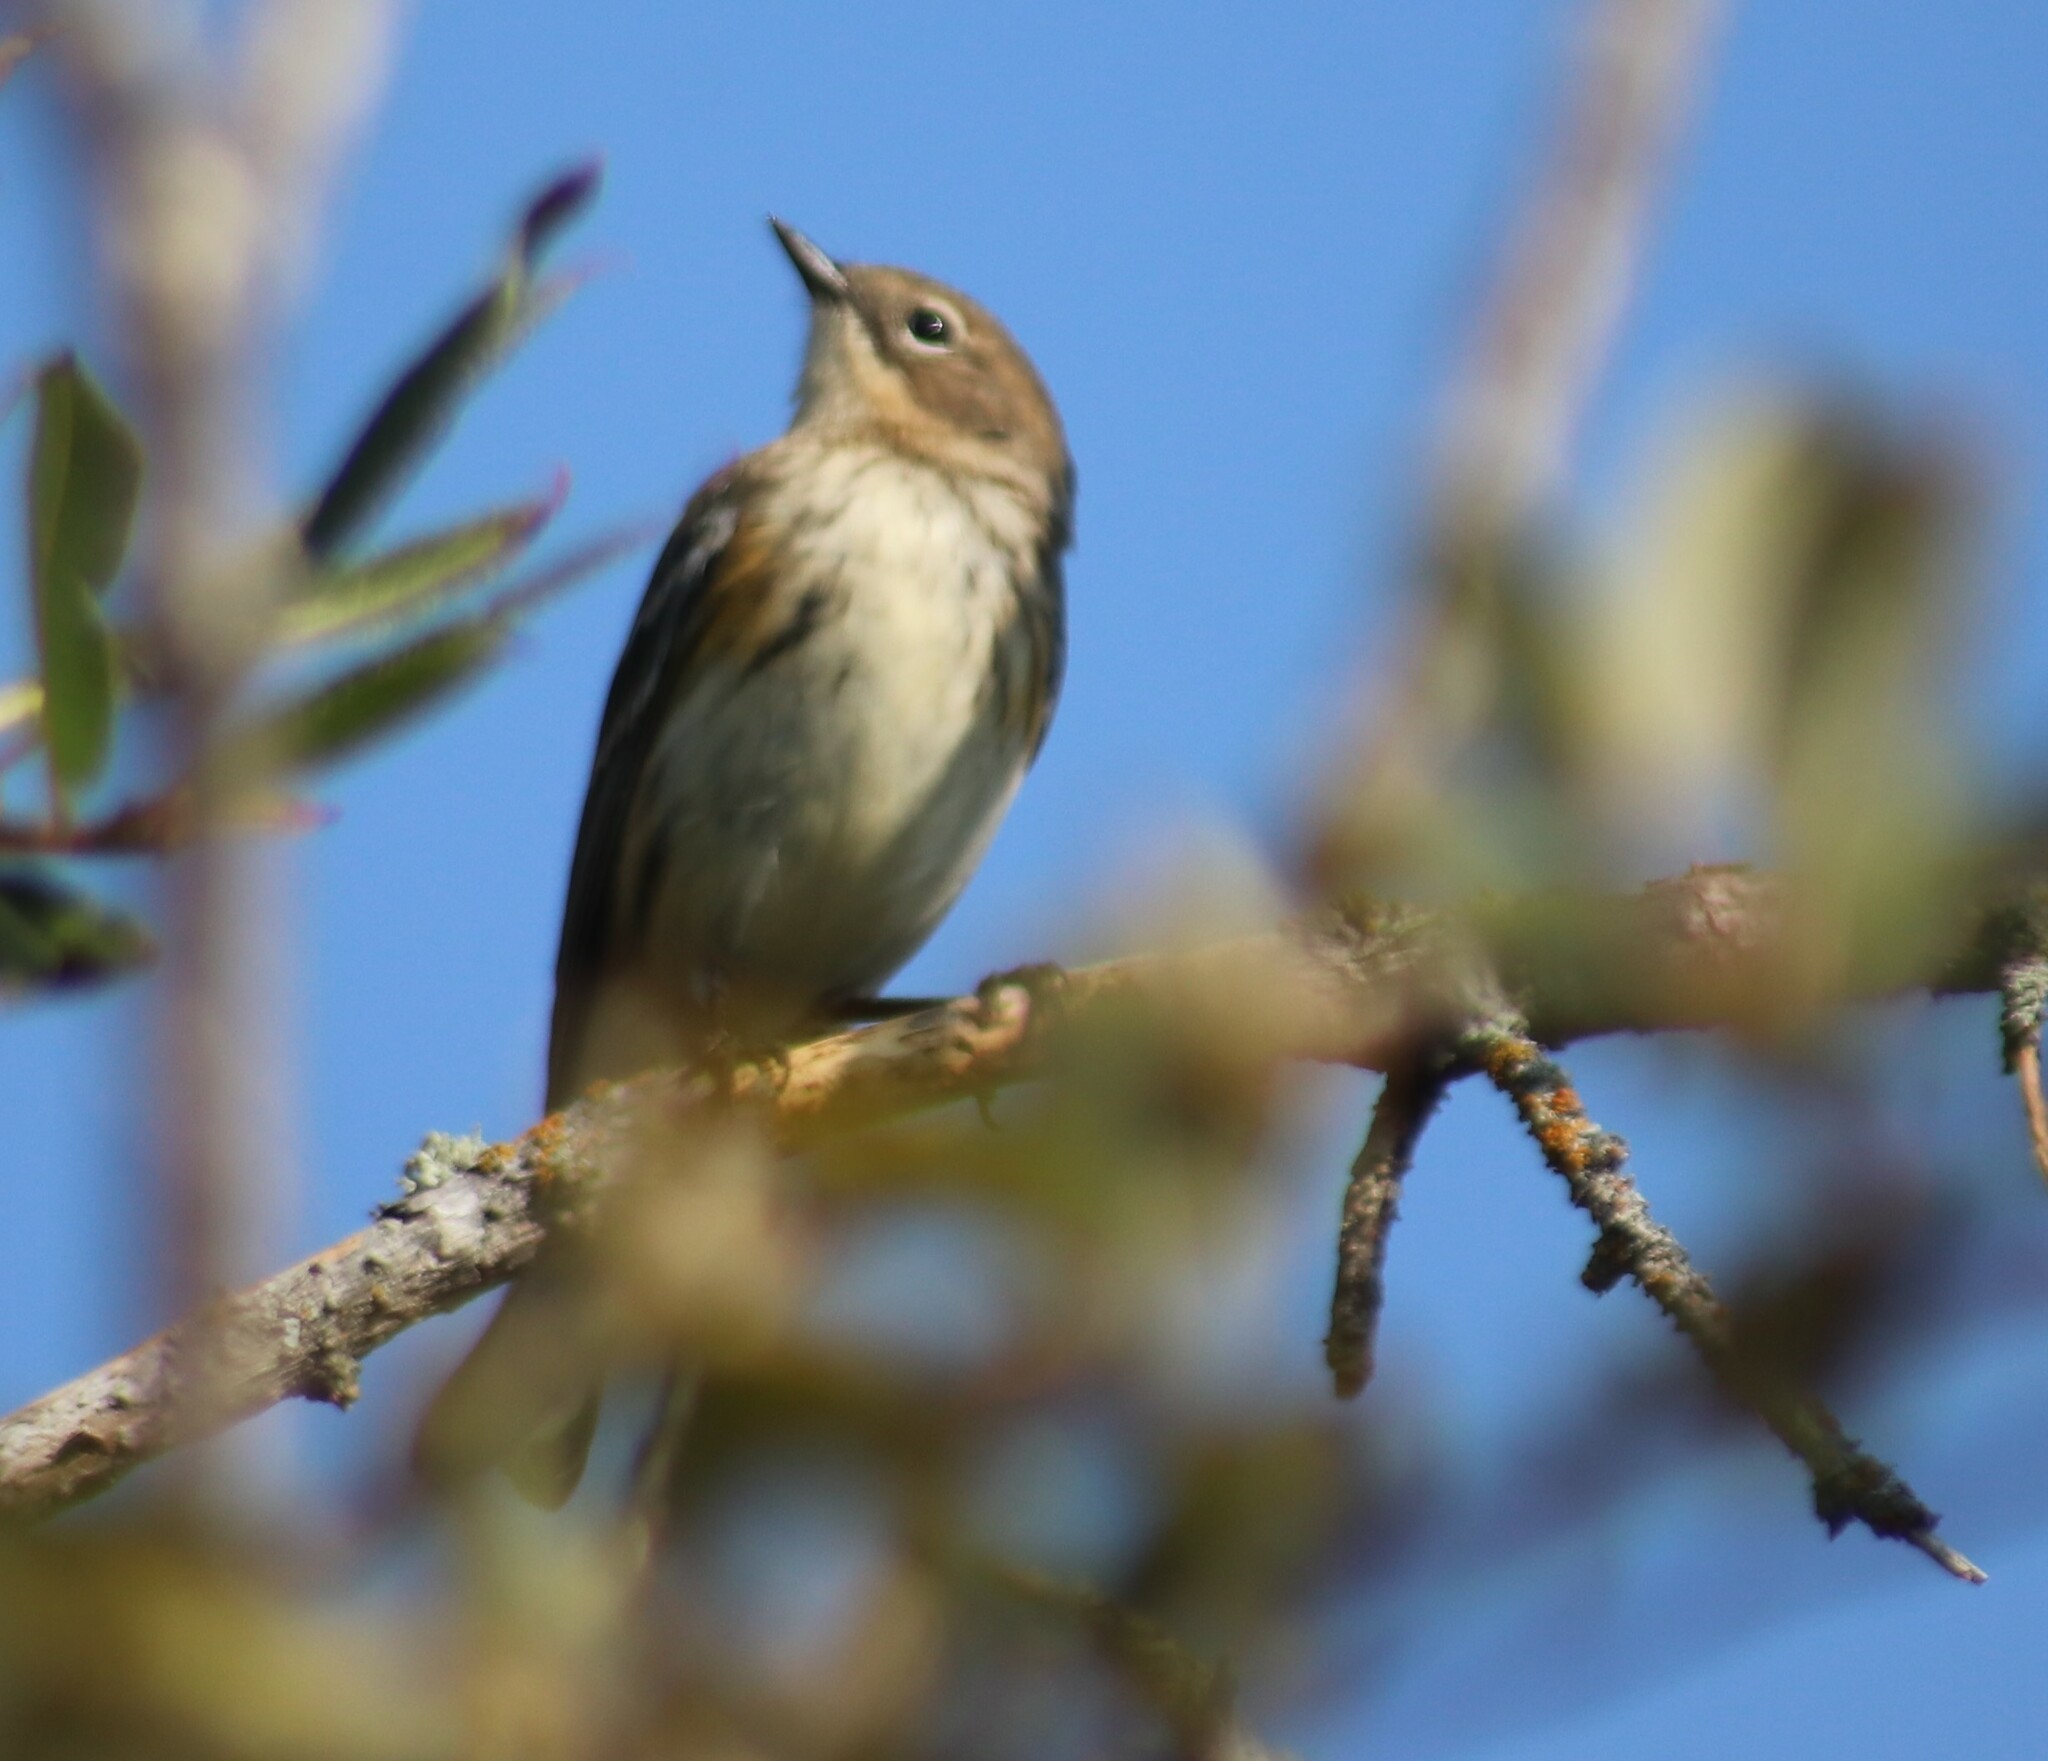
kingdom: Animalia
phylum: Chordata
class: Aves
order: Passeriformes
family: Parulidae
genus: Setophaga
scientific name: Setophaga coronata
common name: Myrtle warbler
